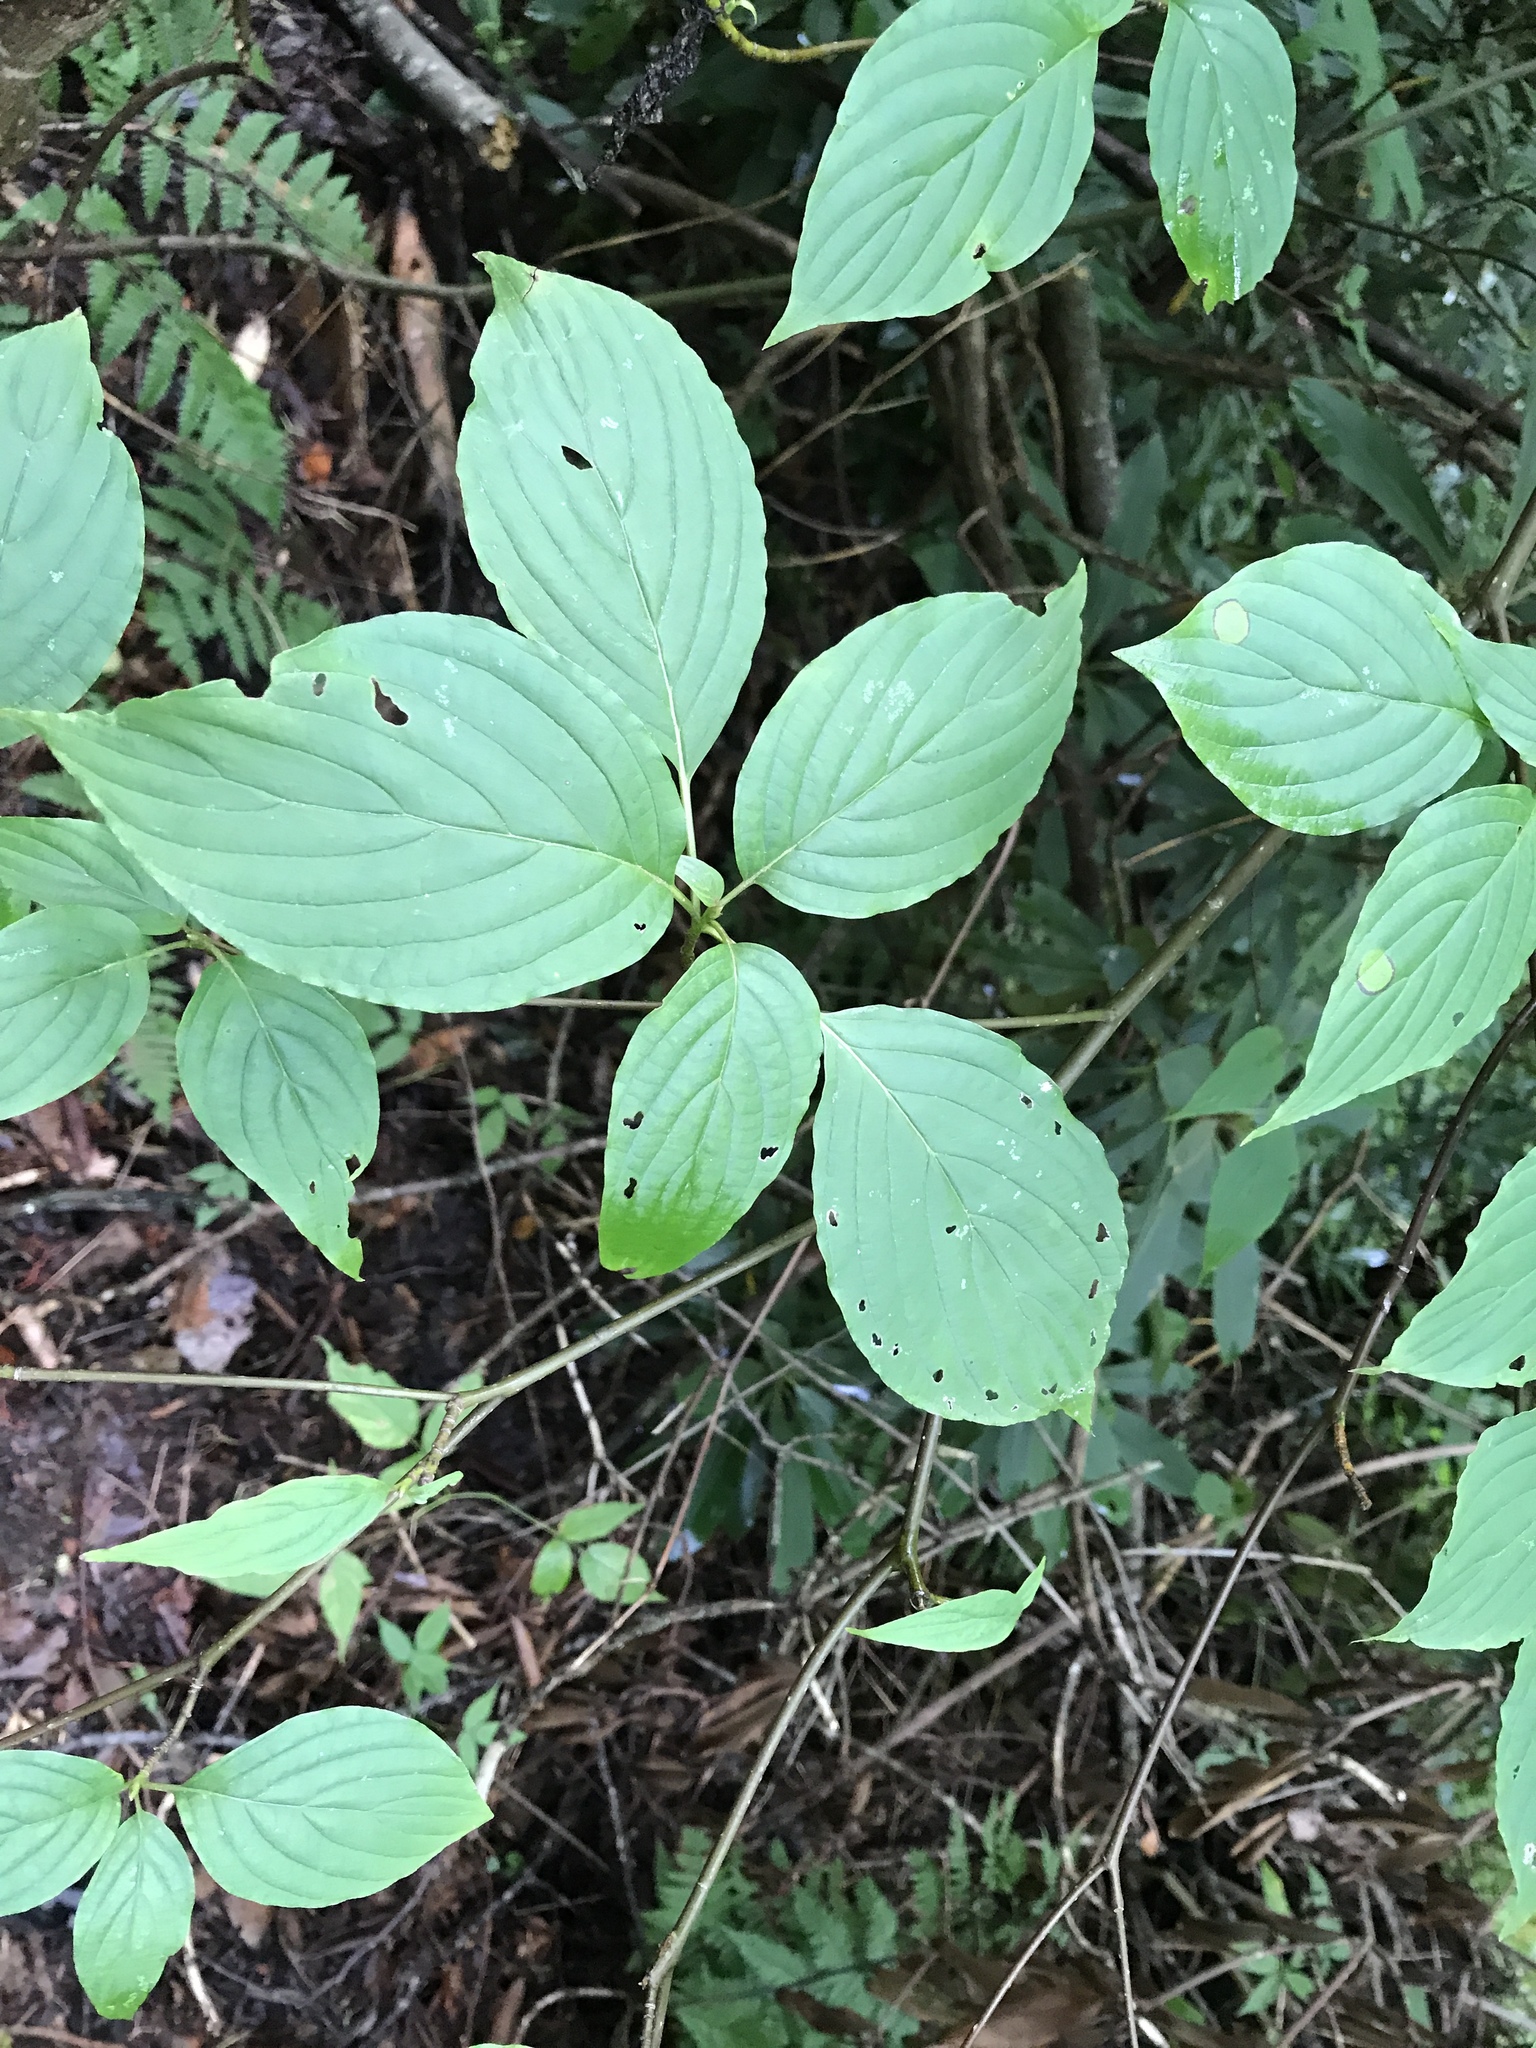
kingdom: Plantae
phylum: Tracheophyta
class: Magnoliopsida
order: Cornales
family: Cornaceae
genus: Cornus
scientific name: Cornus alternifolia
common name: Pagoda dogwood
